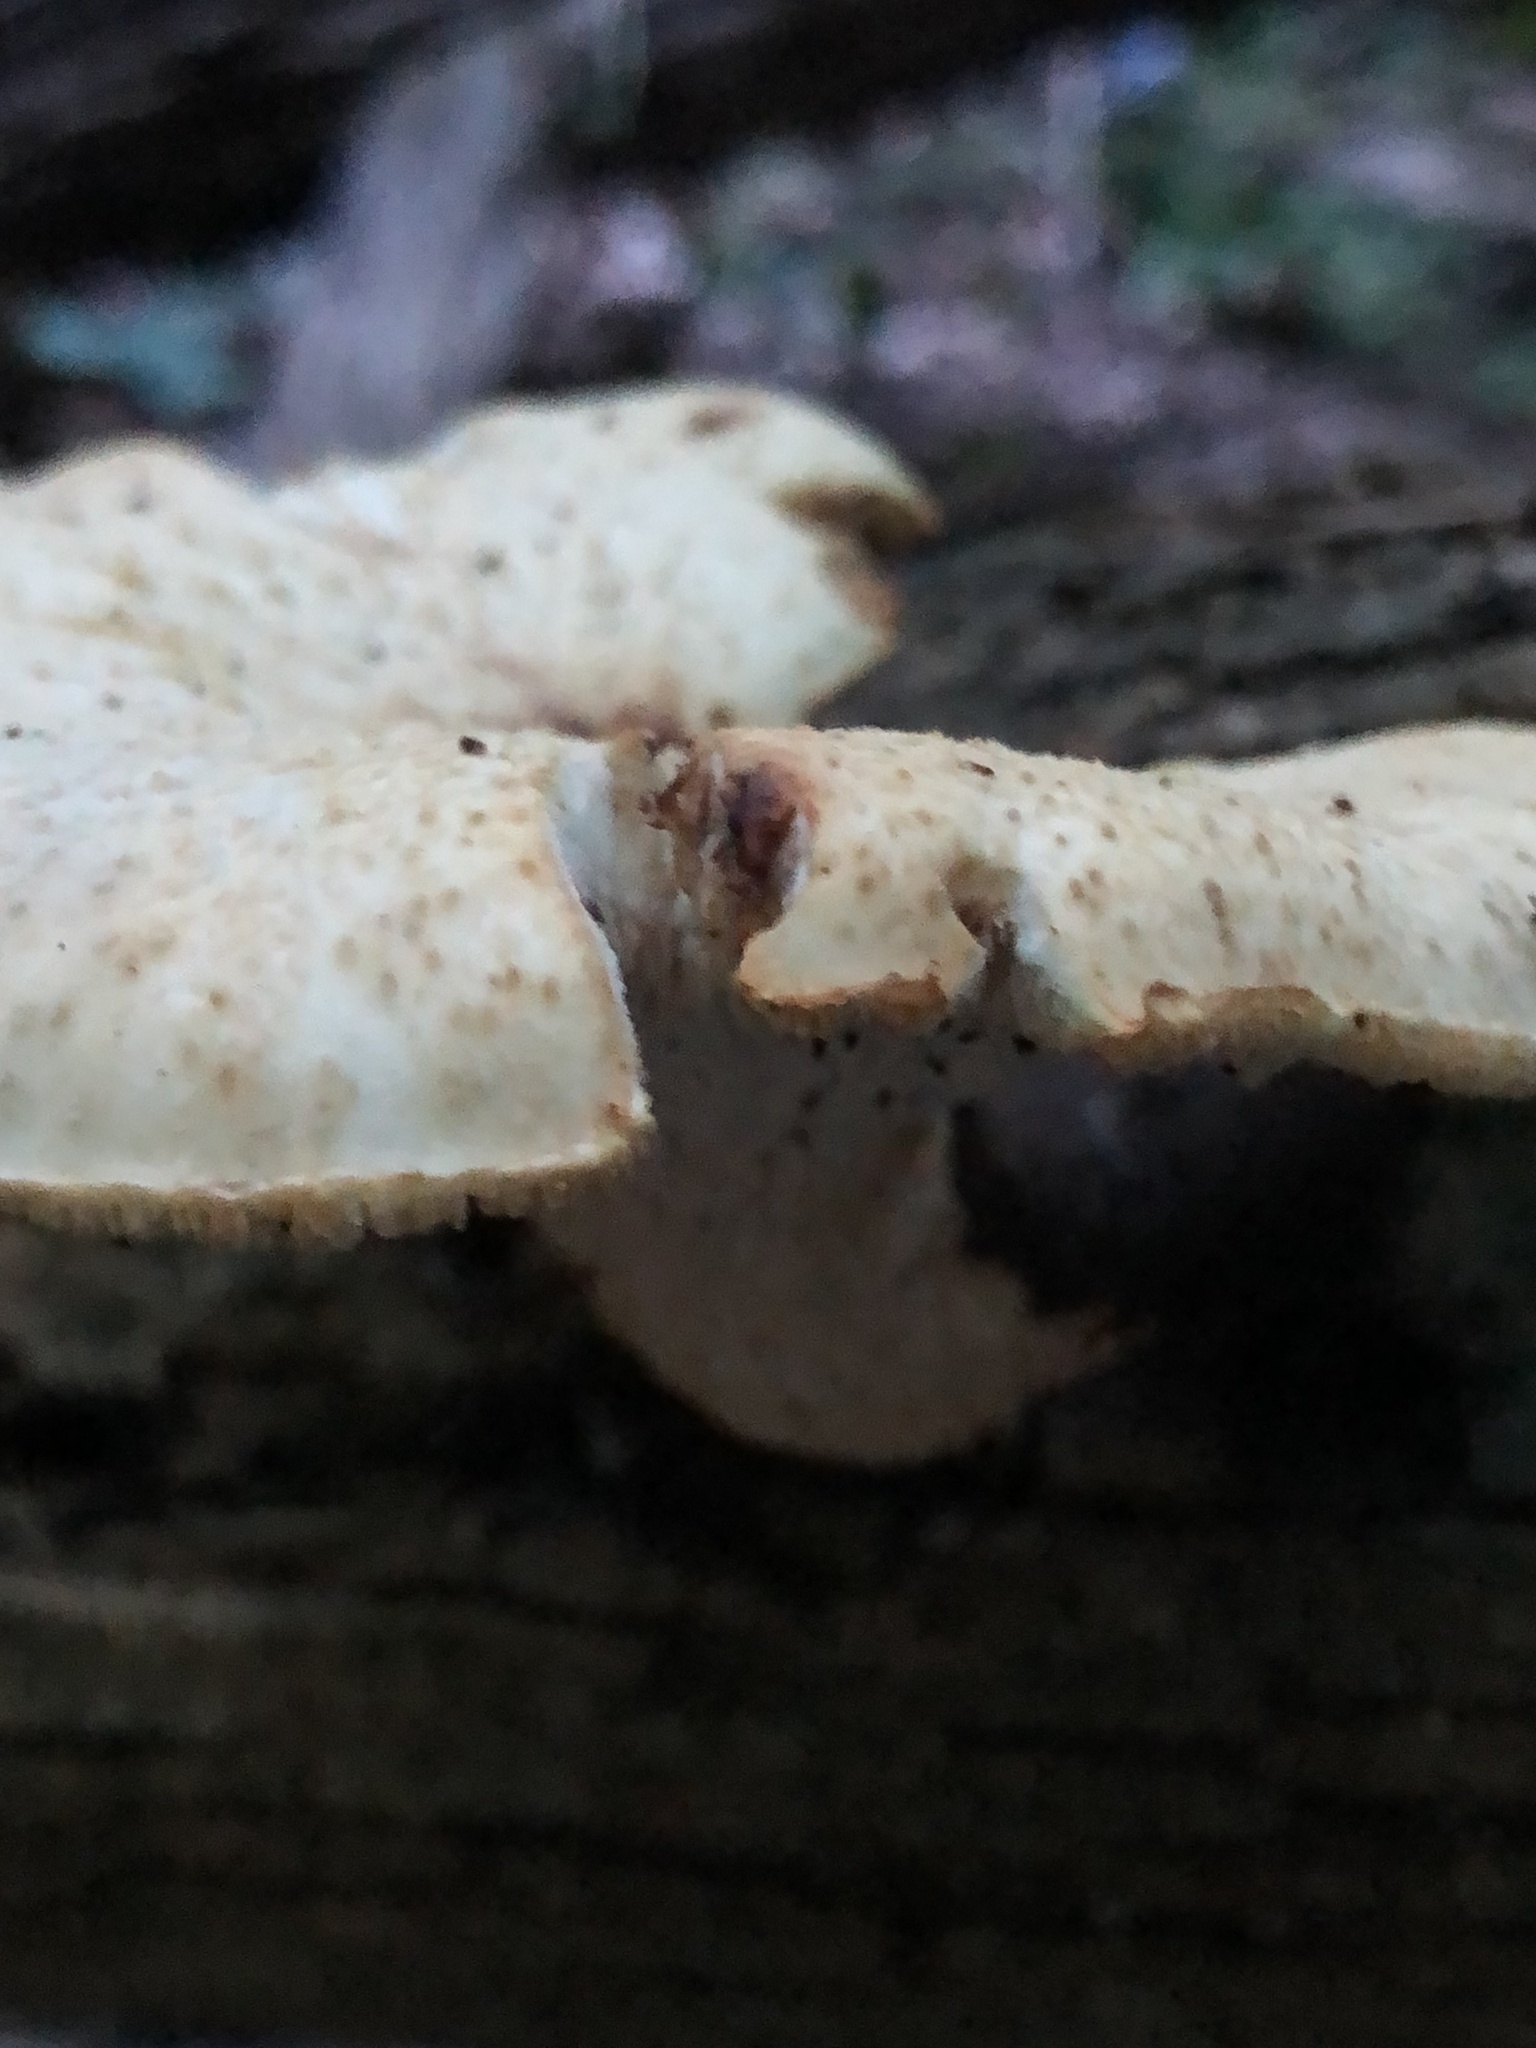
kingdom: Fungi
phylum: Basidiomycota
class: Agaricomycetes
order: Polyporales
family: Polyporaceae
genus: Cerioporus
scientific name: Cerioporus squamosus
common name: Dryad's saddle
